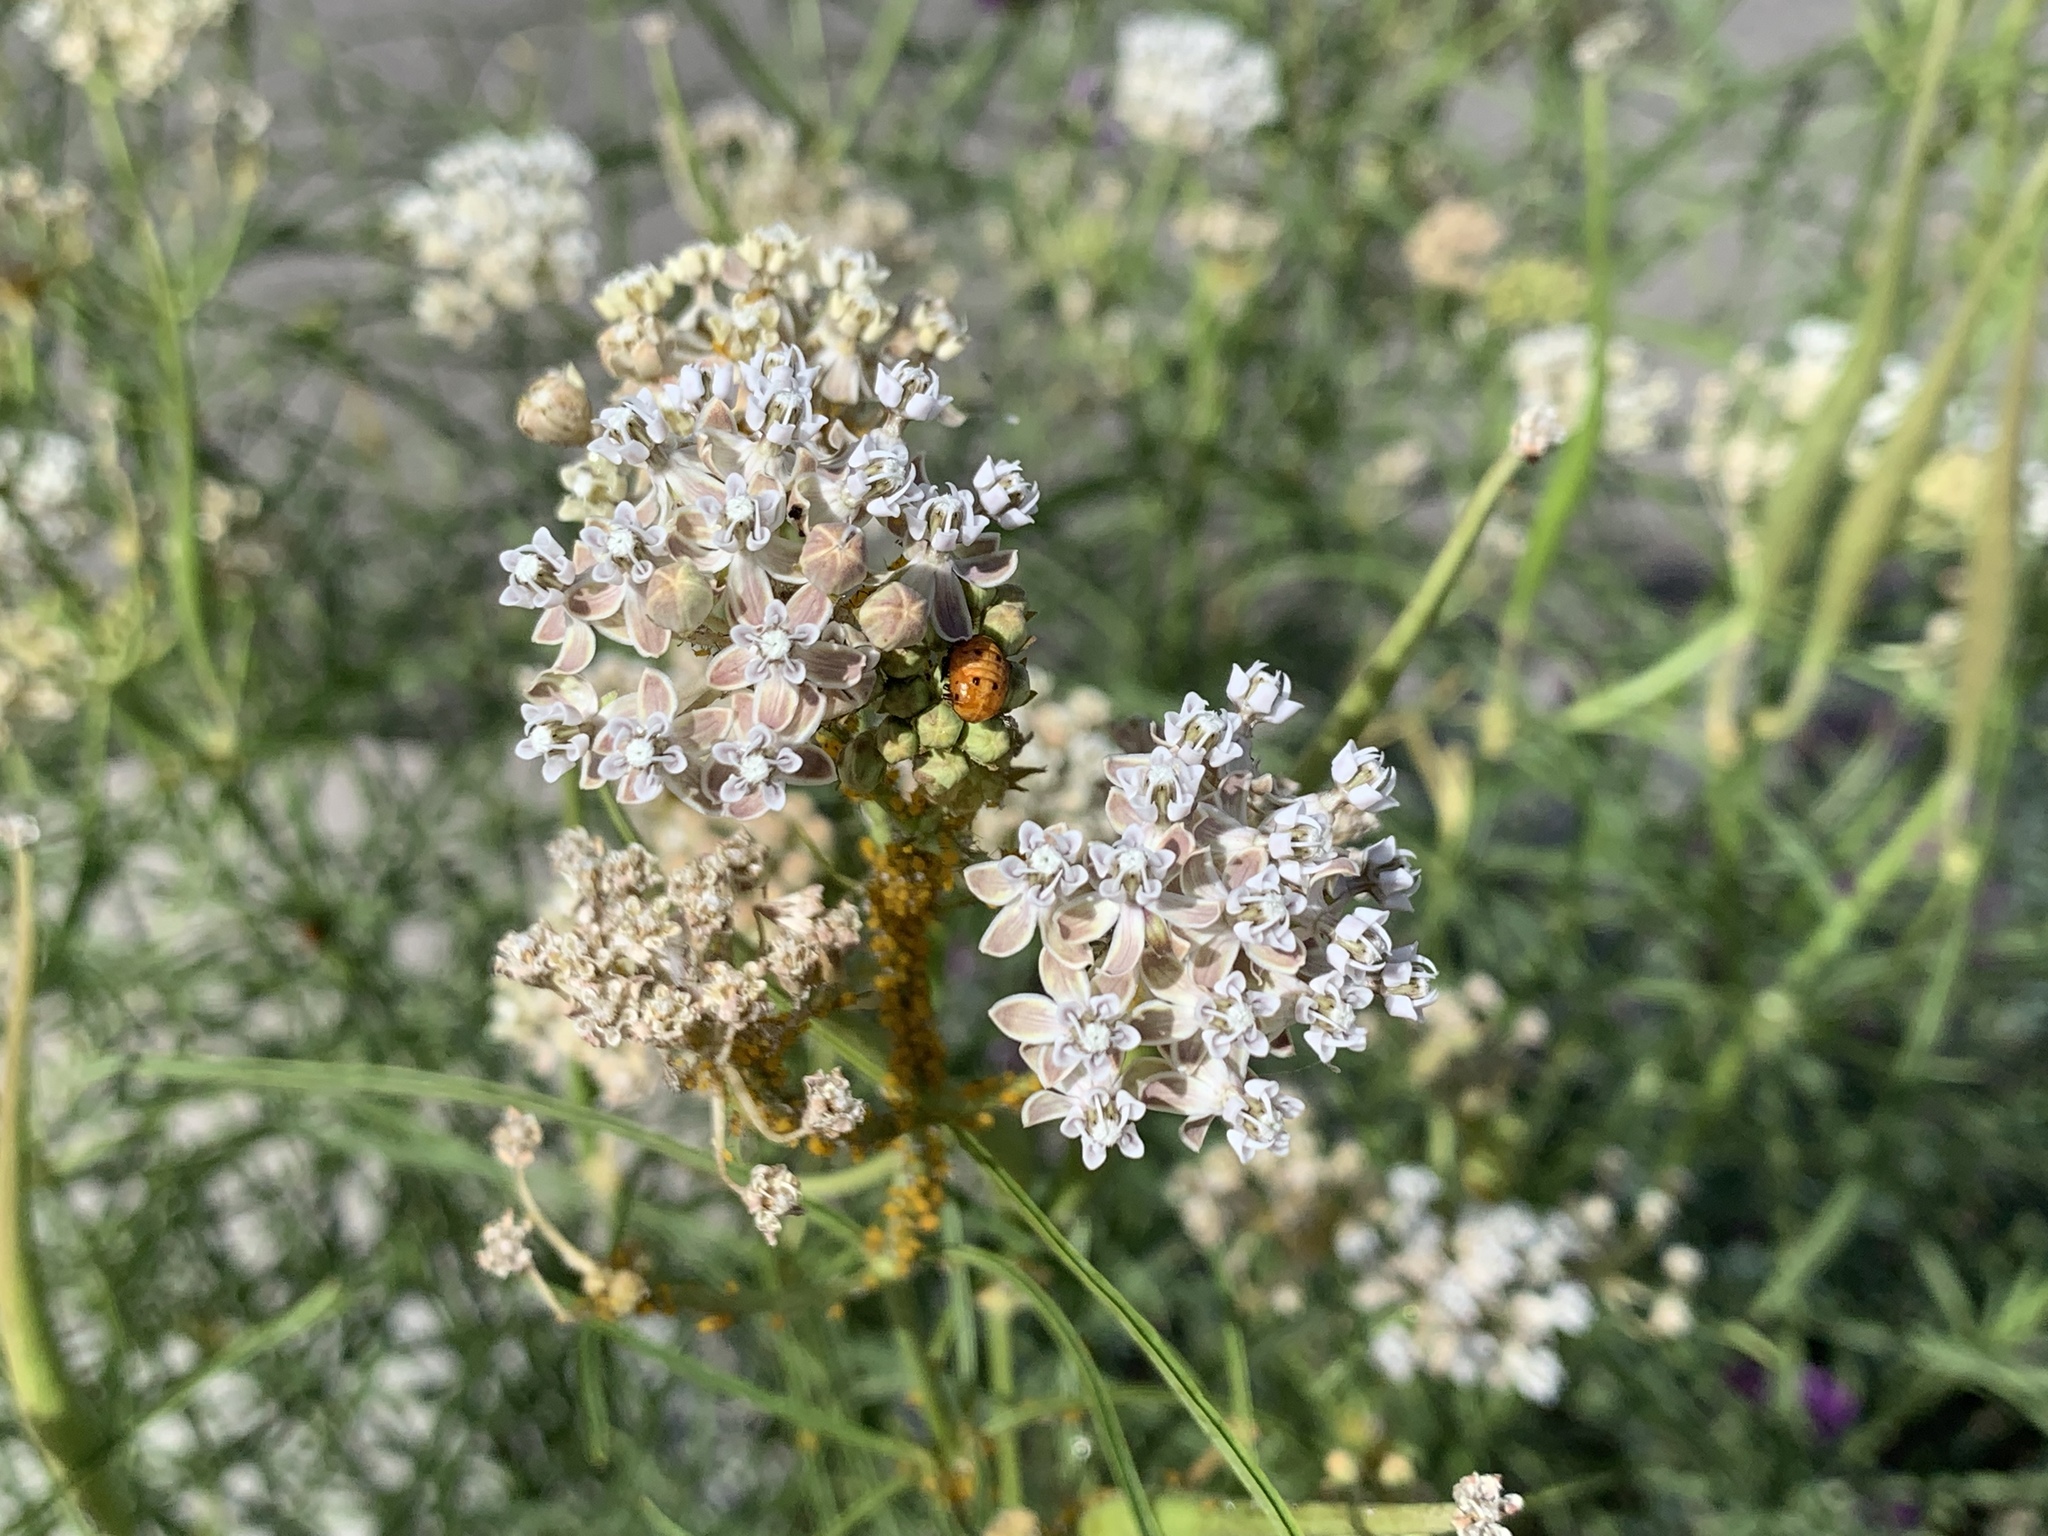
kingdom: Plantae
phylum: Tracheophyta
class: Magnoliopsida
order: Gentianales
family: Apocynaceae
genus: Asclepias
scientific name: Asclepias fascicularis
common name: Mexican milkweed
